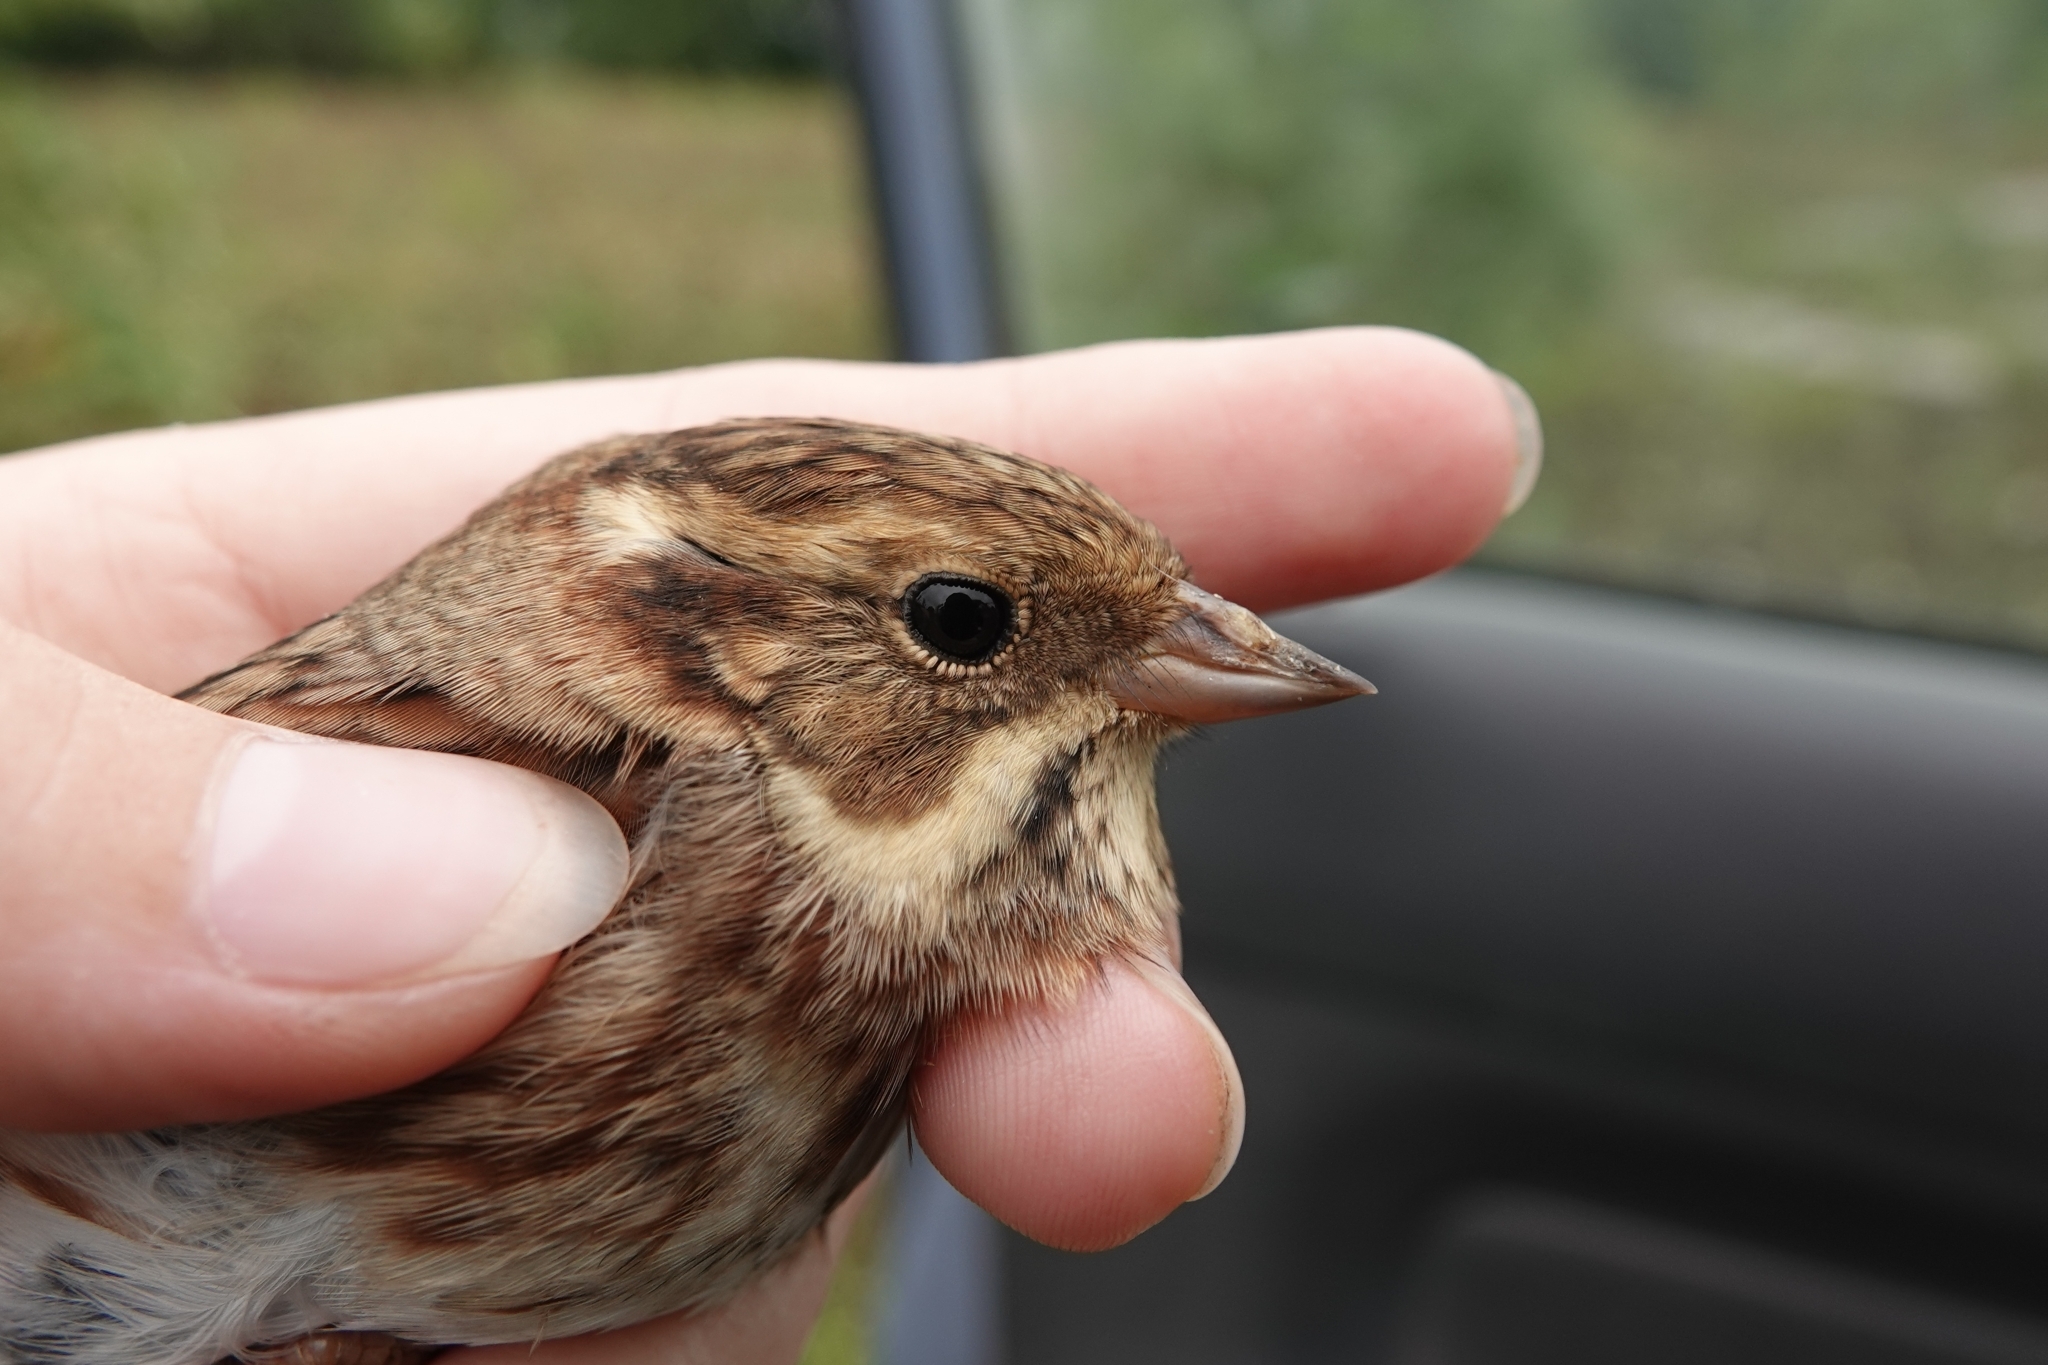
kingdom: Animalia
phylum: Chordata
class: Aves
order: Passeriformes
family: Emberizidae
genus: Emberiza
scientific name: Emberiza rustica
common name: Rustic bunting
